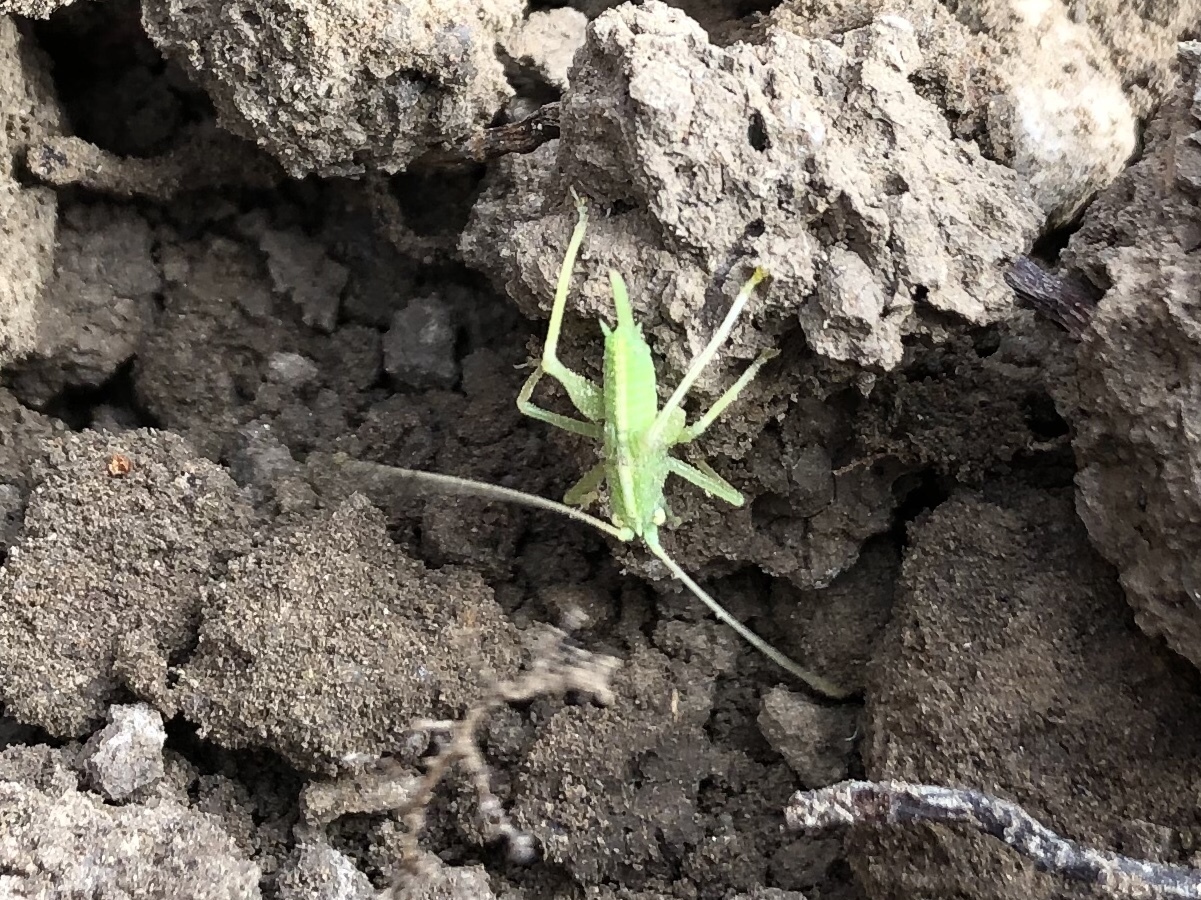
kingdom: Animalia
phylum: Arthropoda
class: Insecta
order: Orthoptera
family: Tettigoniidae
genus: Meconema
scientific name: Meconema thalassinum
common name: Oak bush-cricket
